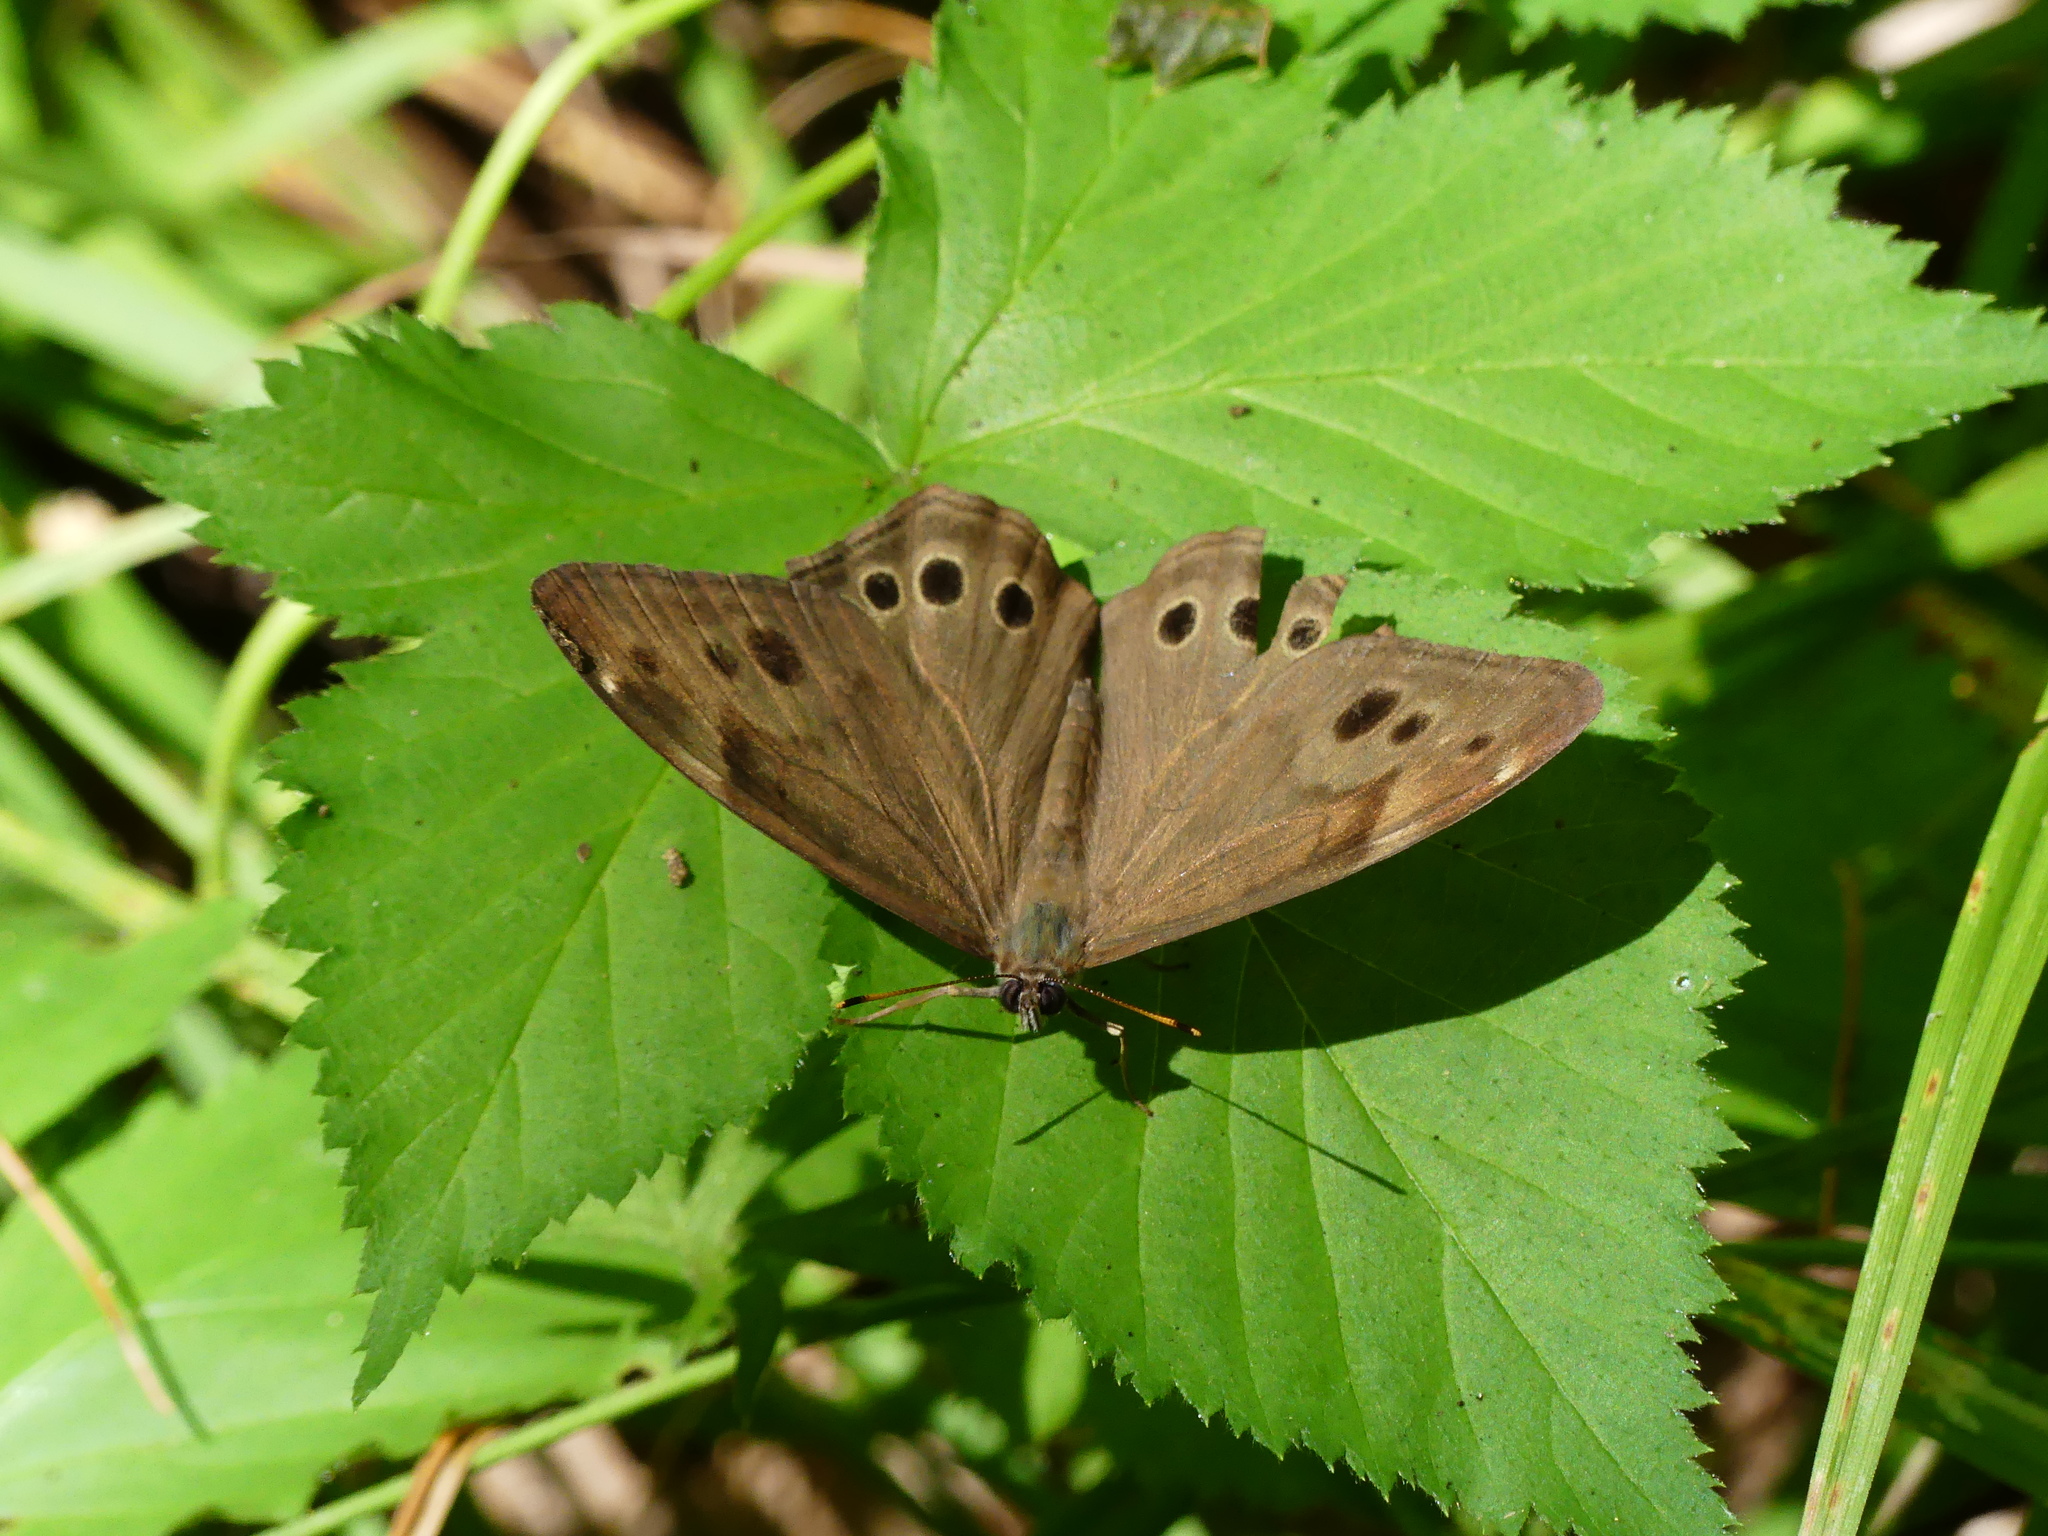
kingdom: Animalia
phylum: Arthropoda
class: Insecta
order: Lepidoptera
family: Nymphalidae
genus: Lethe
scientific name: Lethe anthedon
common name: Northern pearly-eye
